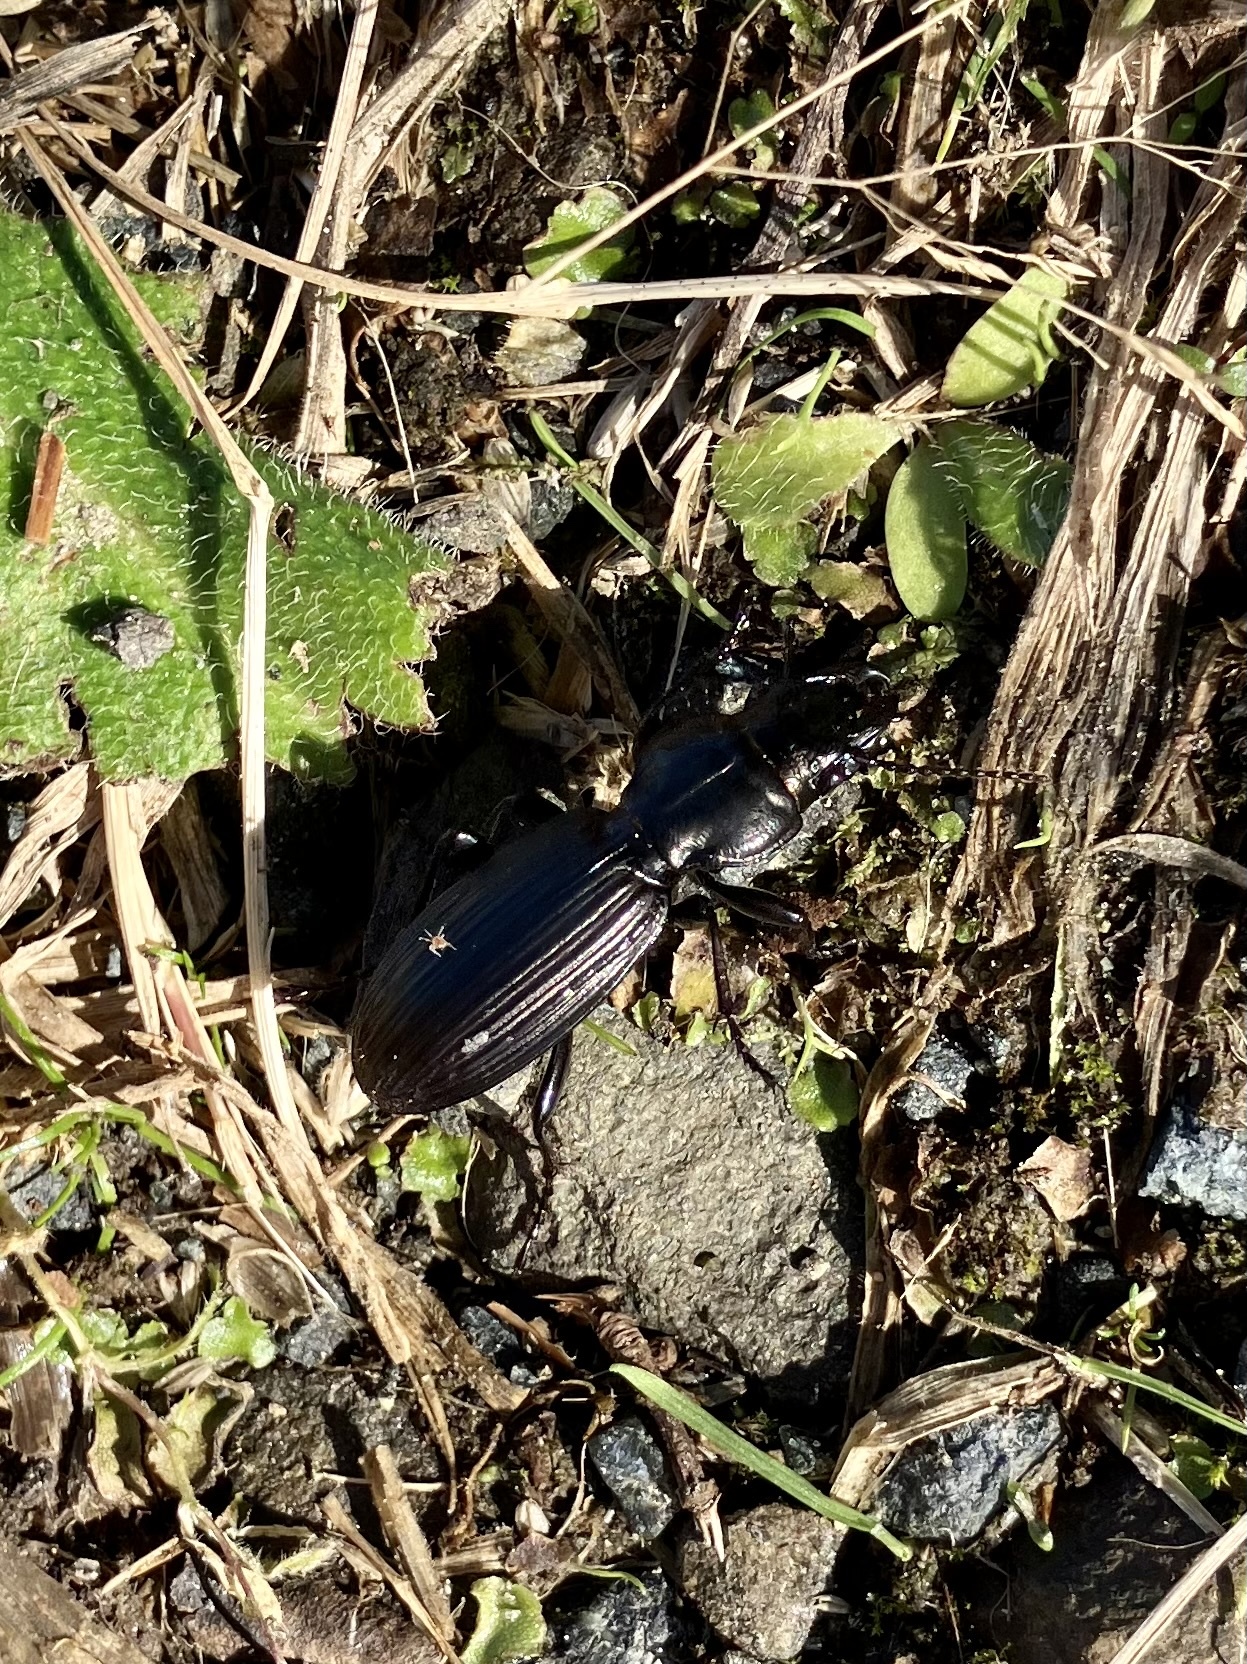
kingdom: Animalia
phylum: Arthropoda
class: Insecta
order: Coleoptera
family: Carabidae
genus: Mecodema
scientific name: Mecodema alternans
